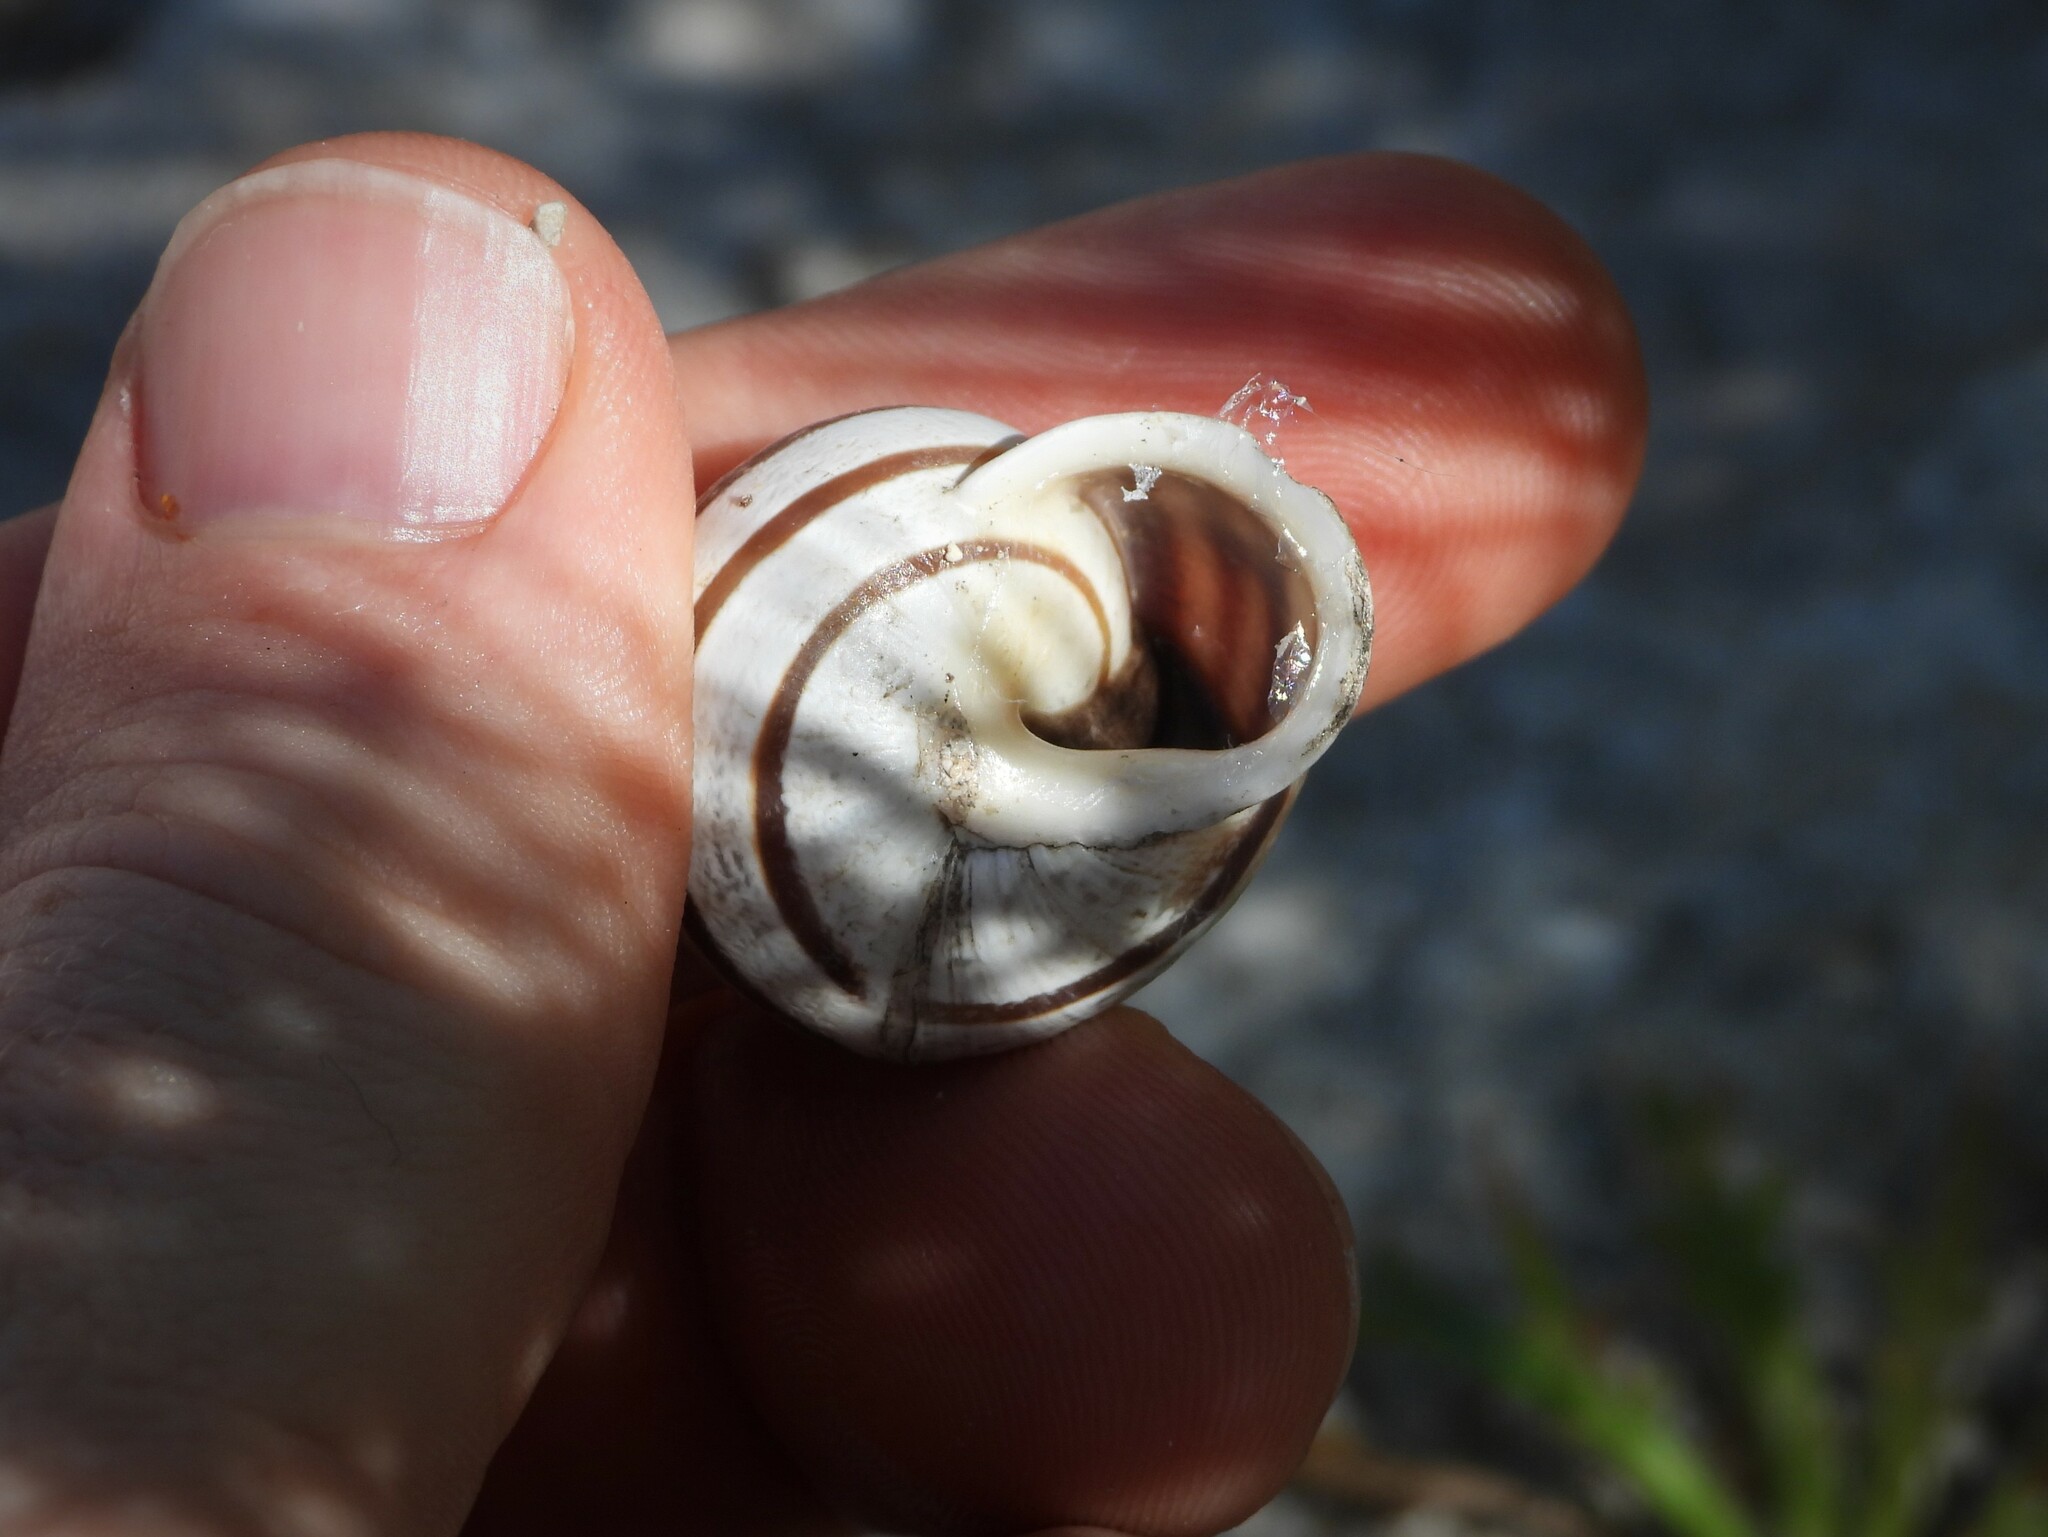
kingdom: Animalia
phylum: Mollusca
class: Gastropoda
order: Stylommatophora
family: Helicidae
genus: Eobania
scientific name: Eobania vermiculata
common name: Chocolateband snail
